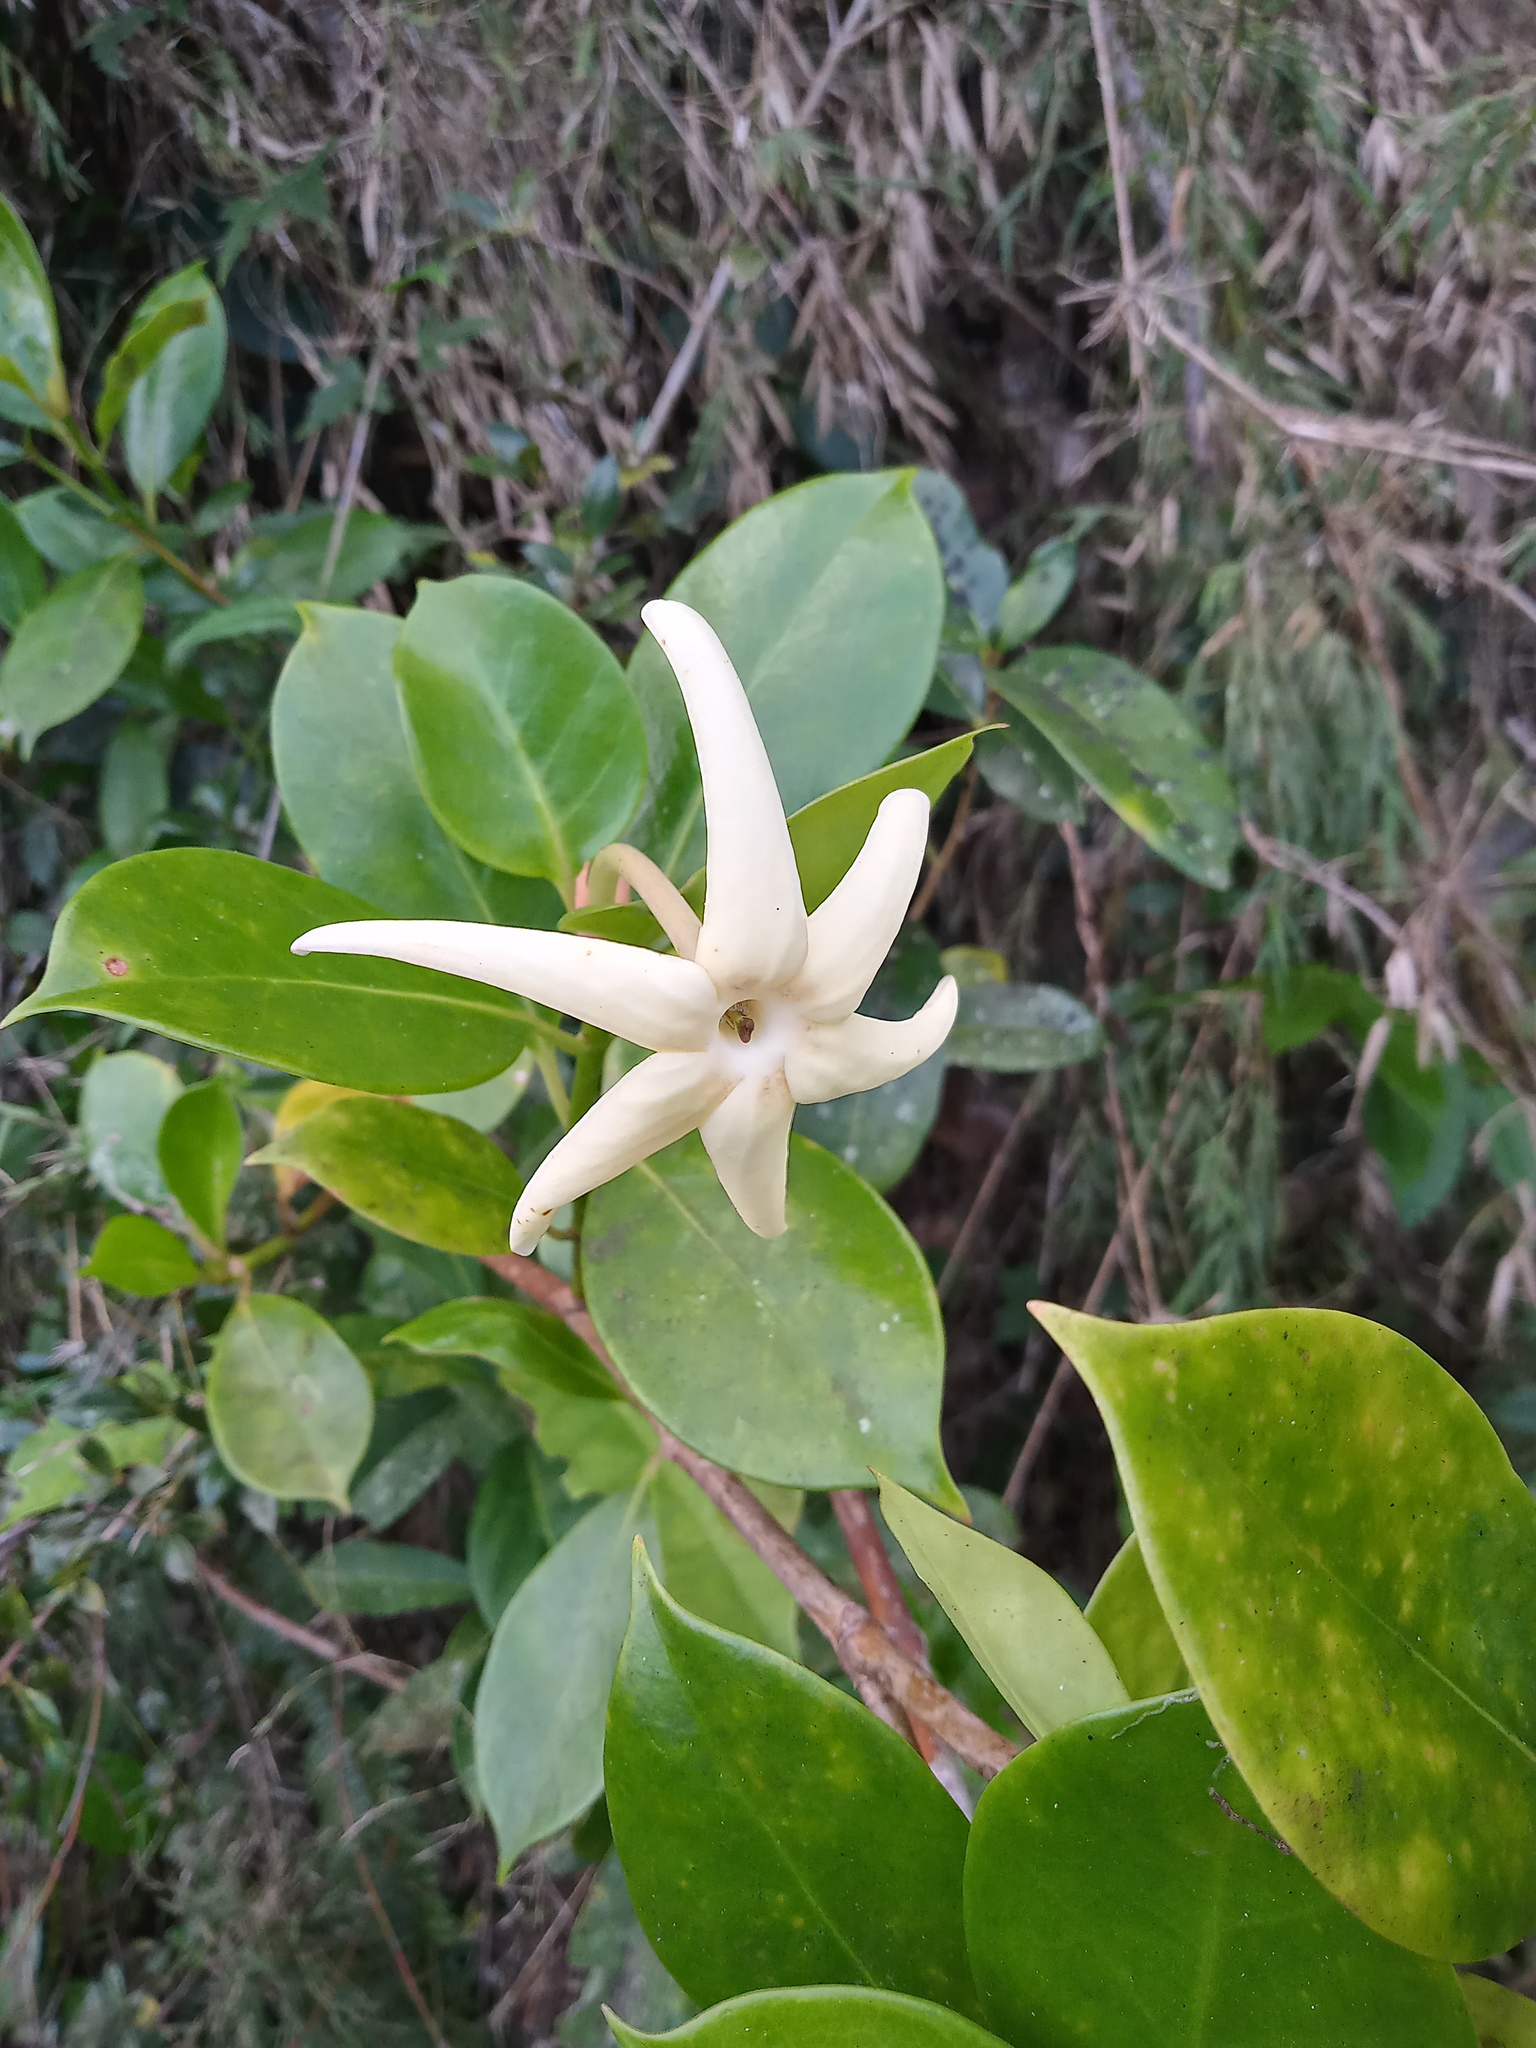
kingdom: Plantae
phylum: Tracheophyta
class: Magnoliopsida
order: Gentianales
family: Rubiaceae
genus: Hillia
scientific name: Hillia parasitica
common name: Morning star
